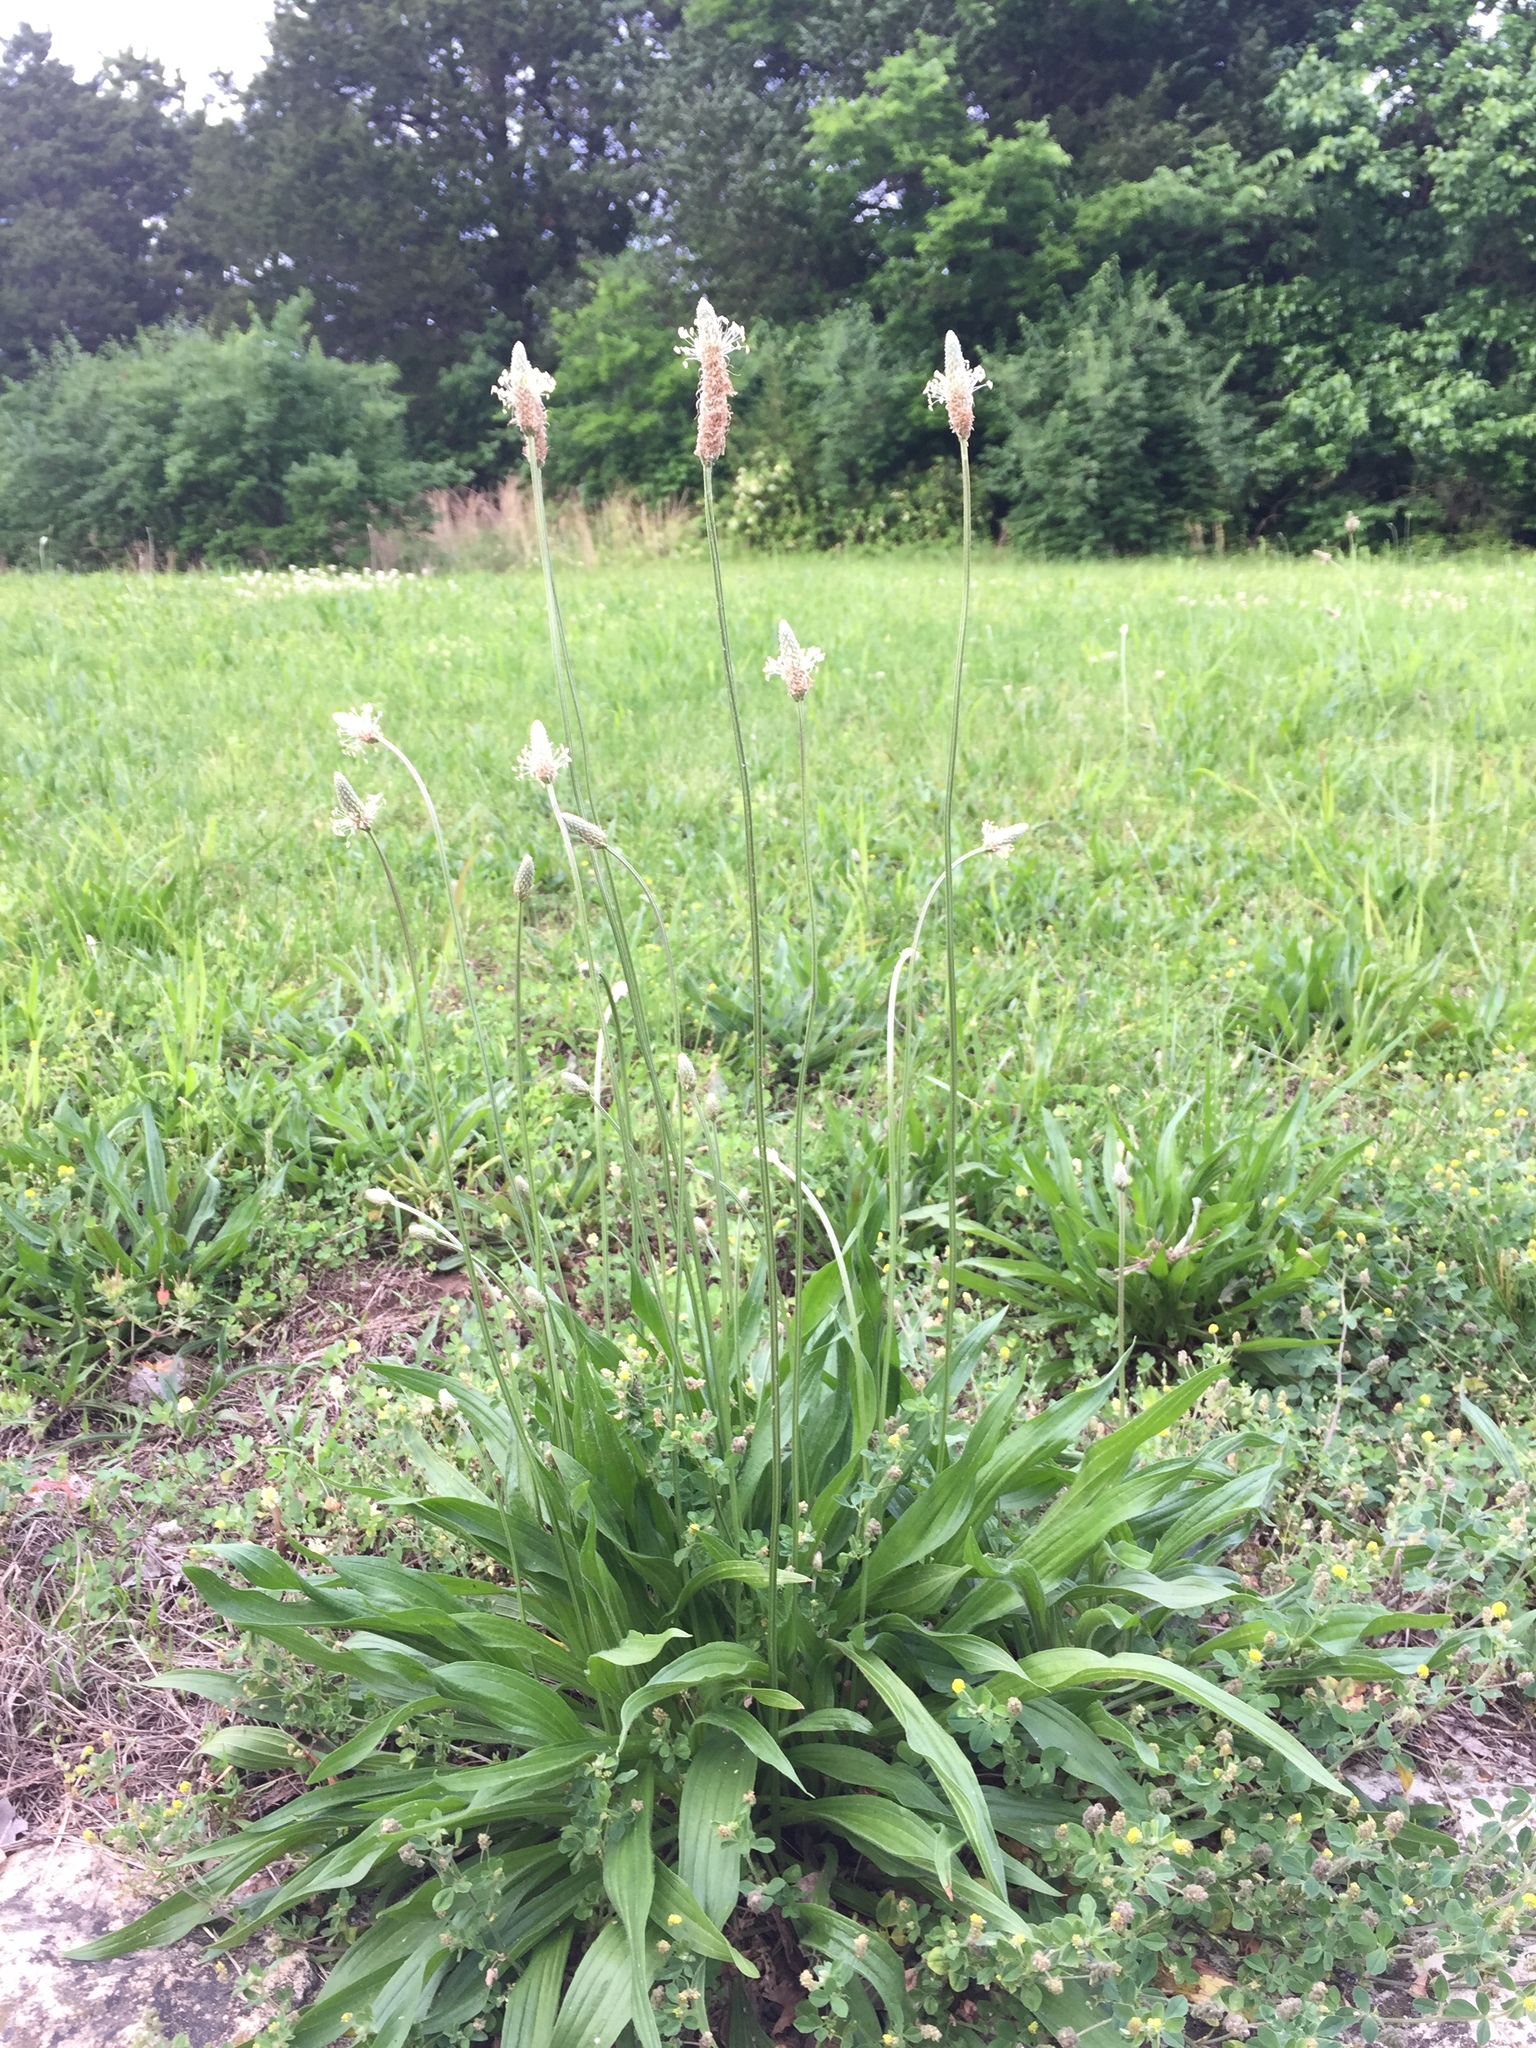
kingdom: Plantae
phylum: Tracheophyta
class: Magnoliopsida
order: Lamiales
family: Plantaginaceae
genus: Plantago
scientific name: Plantago lanceolata
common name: Ribwort plantain
